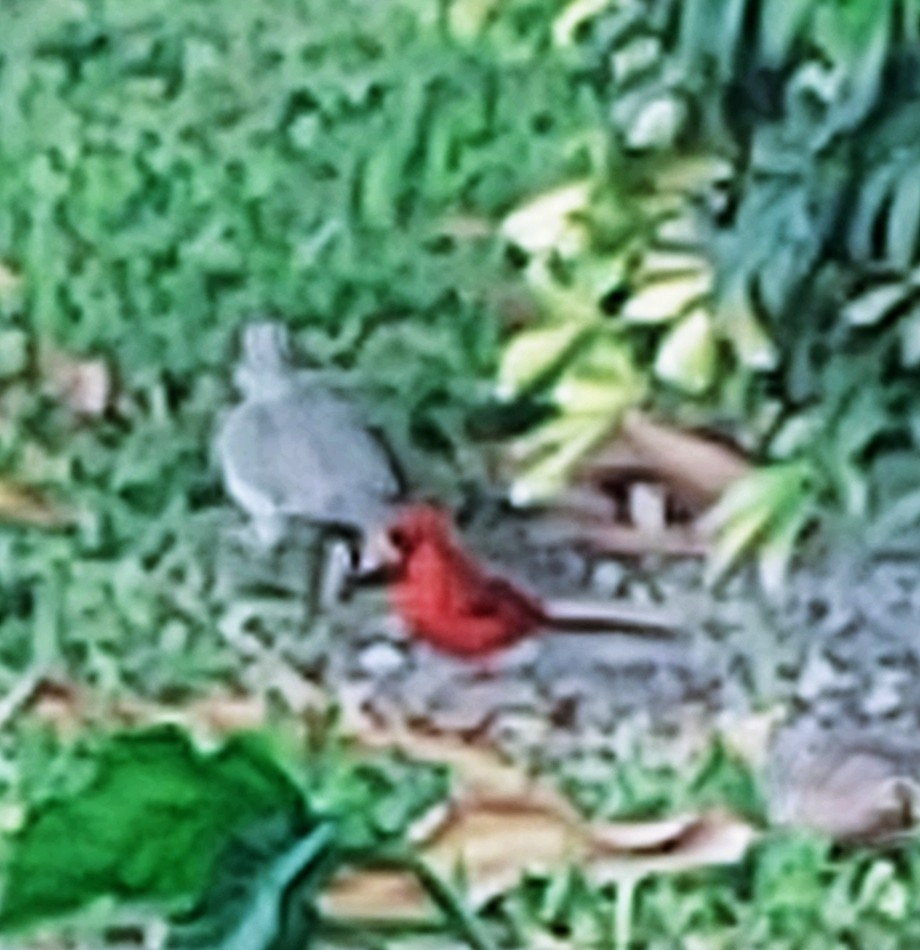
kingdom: Animalia
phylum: Chordata
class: Aves
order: Passeriformes
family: Cardinalidae
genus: Cardinalis
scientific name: Cardinalis cardinalis
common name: Northern cardinal
